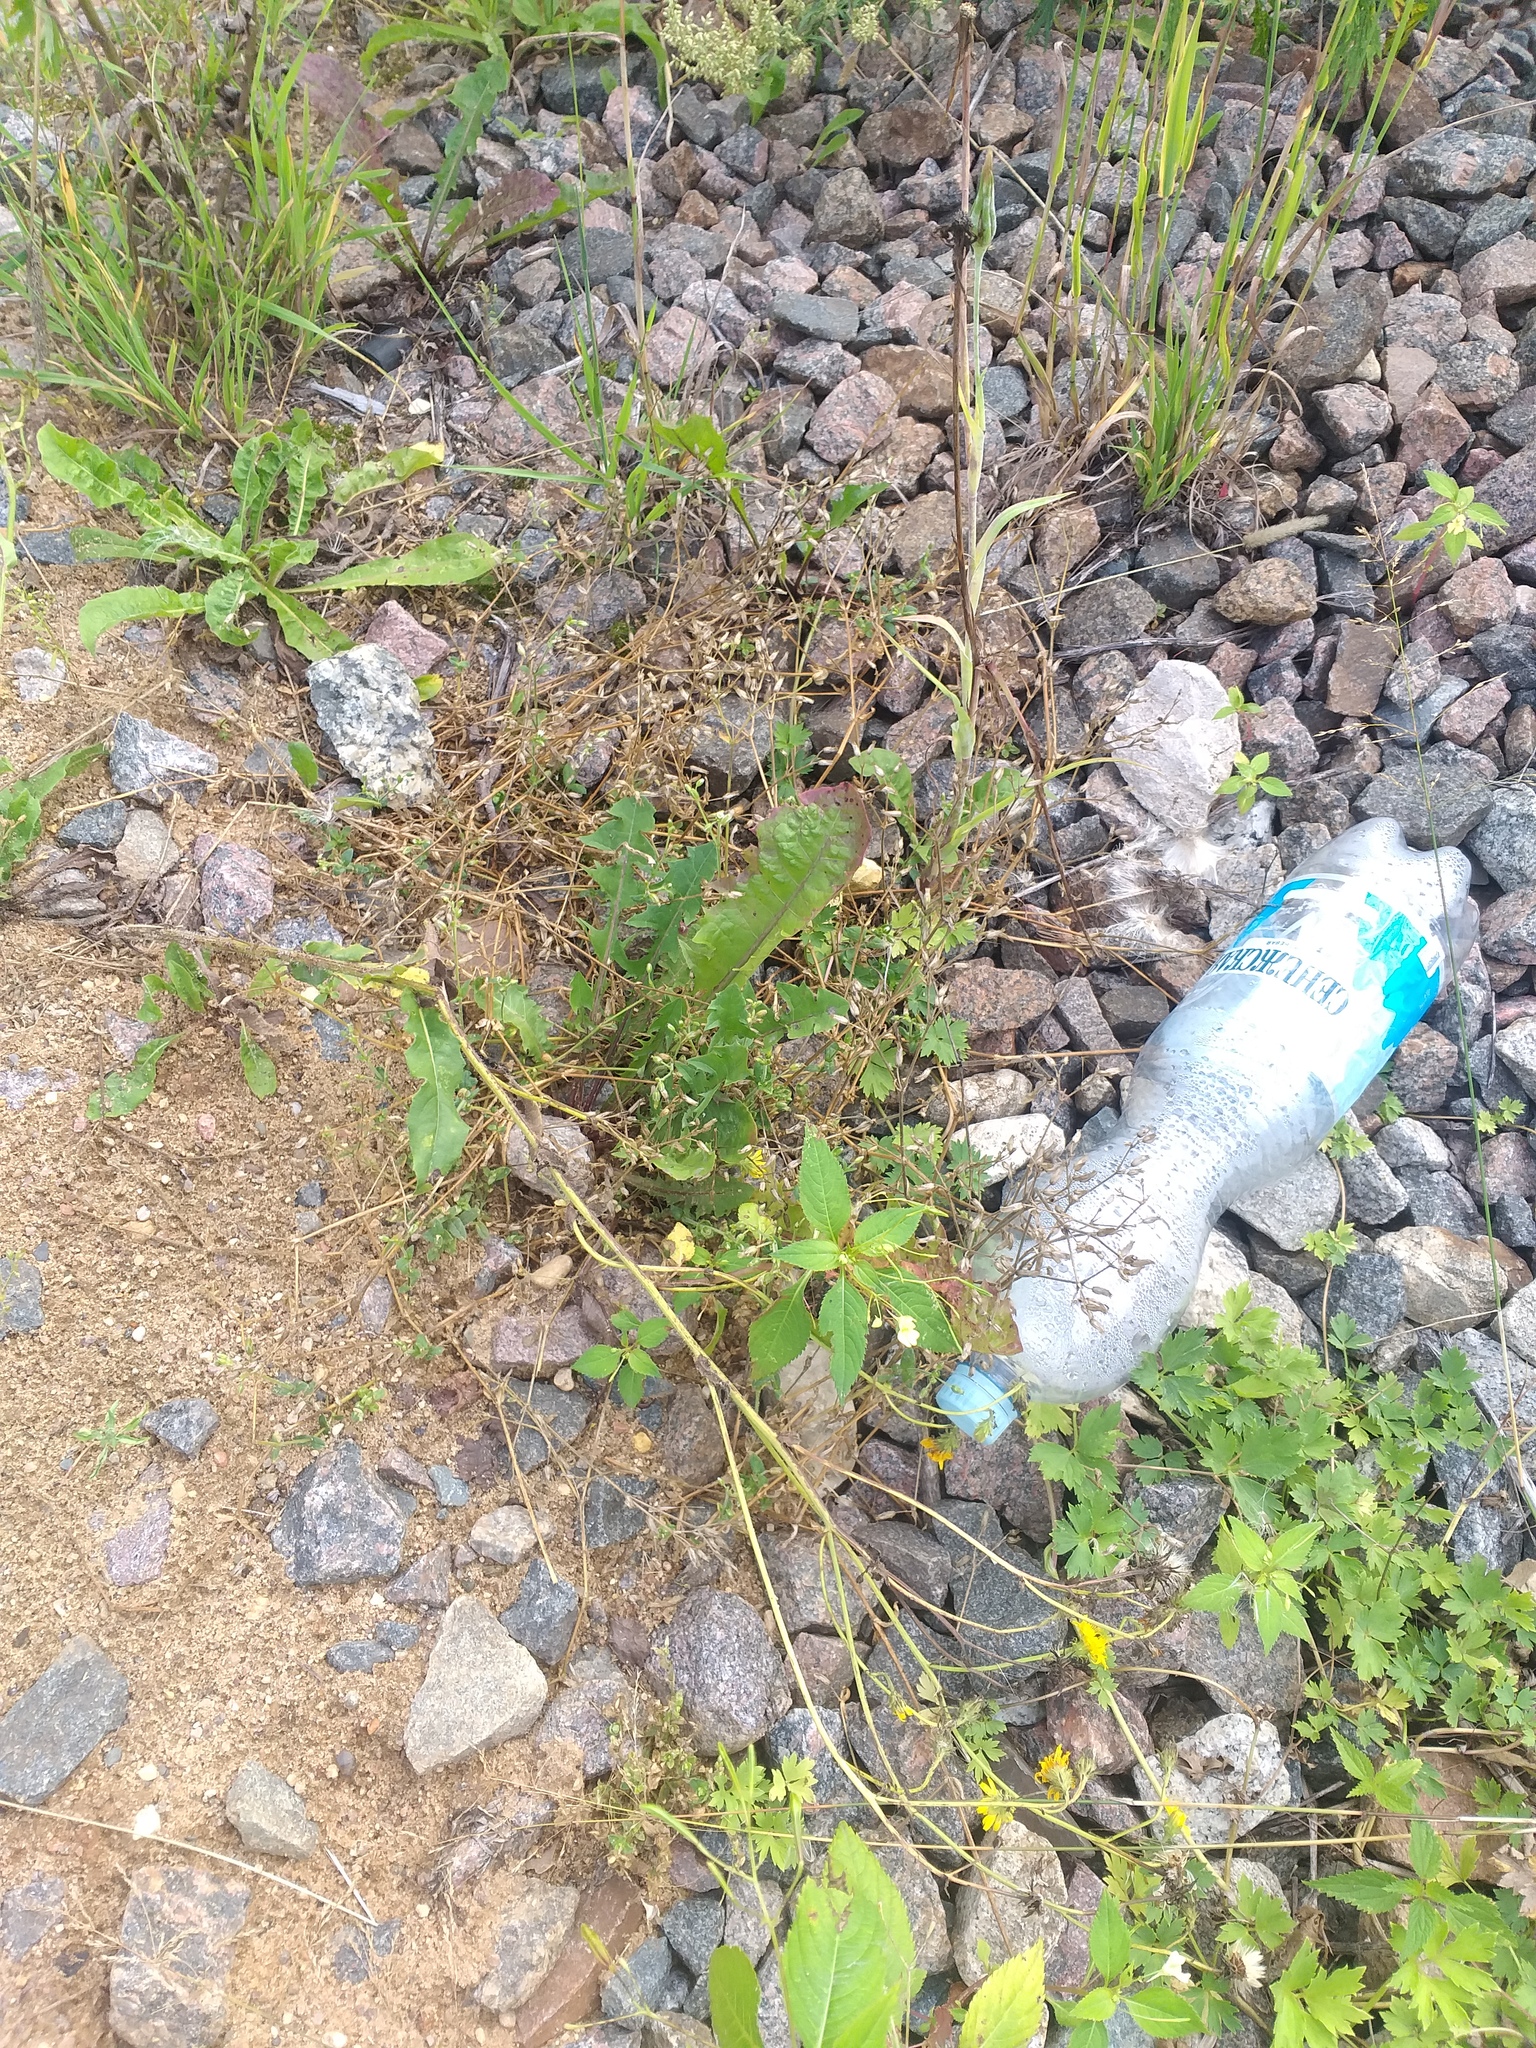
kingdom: Plantae
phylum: Tracheophyta
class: Magnoliopsida
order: Ericales
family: Balsaminaceae
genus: Impatiens
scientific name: Impatiens parviflora
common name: Small balsam
